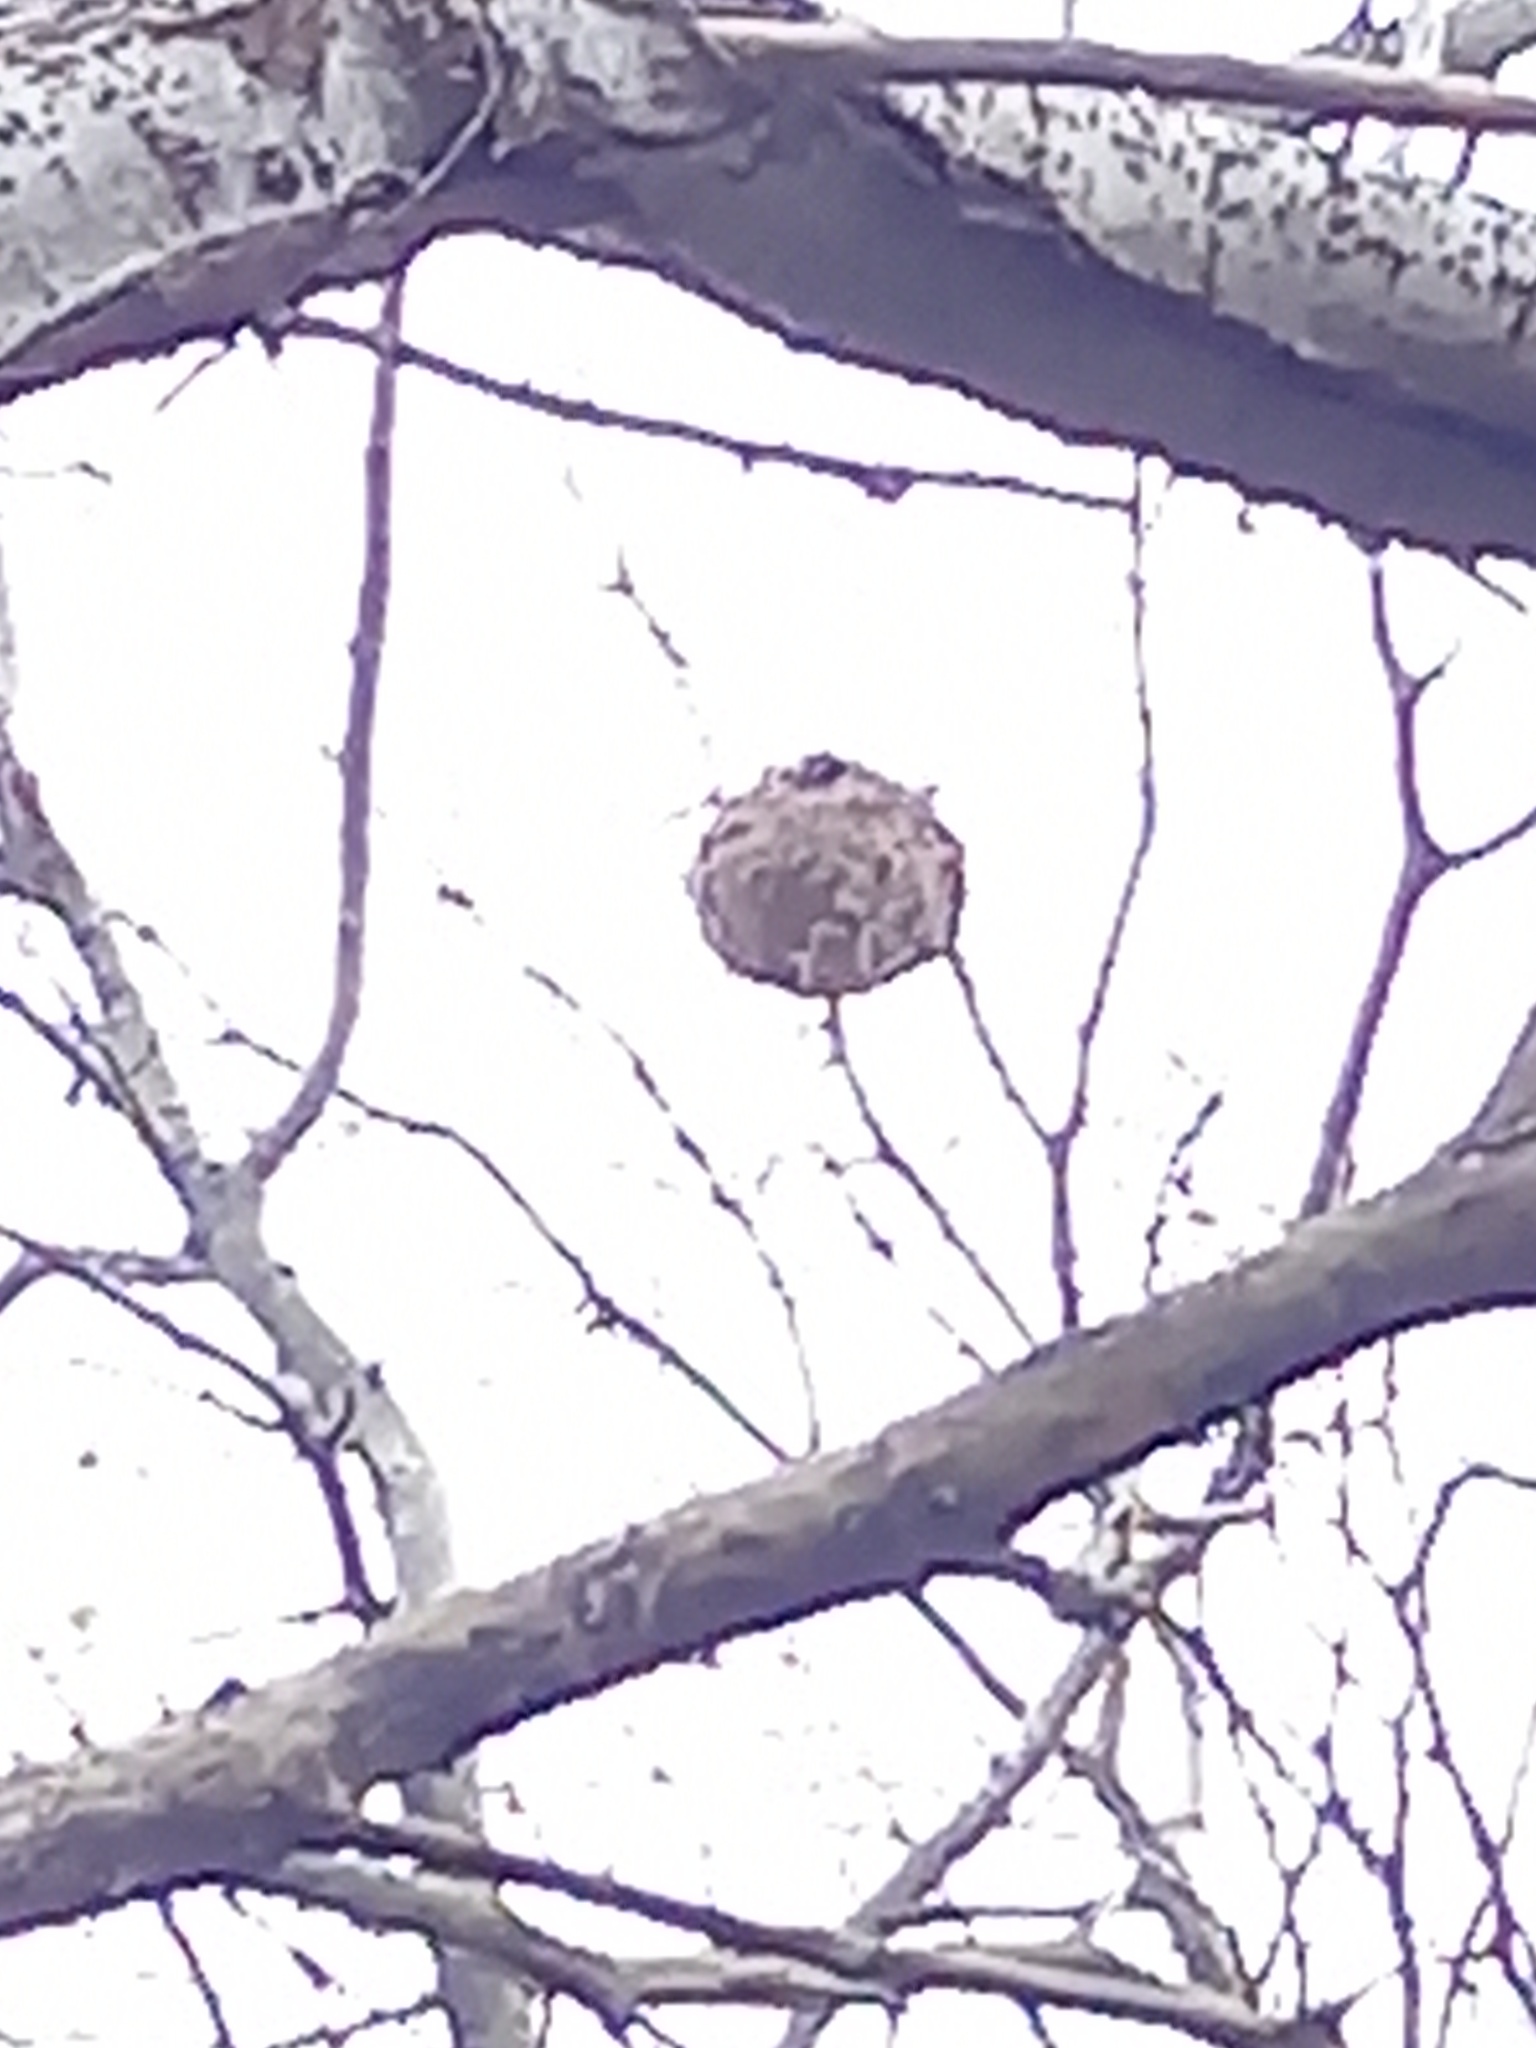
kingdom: Animalia
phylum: Arthropoda
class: Insecta
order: Hymenoptera
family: Vespidae
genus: Vespa
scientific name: Vespa velutina
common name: Asian hornet
